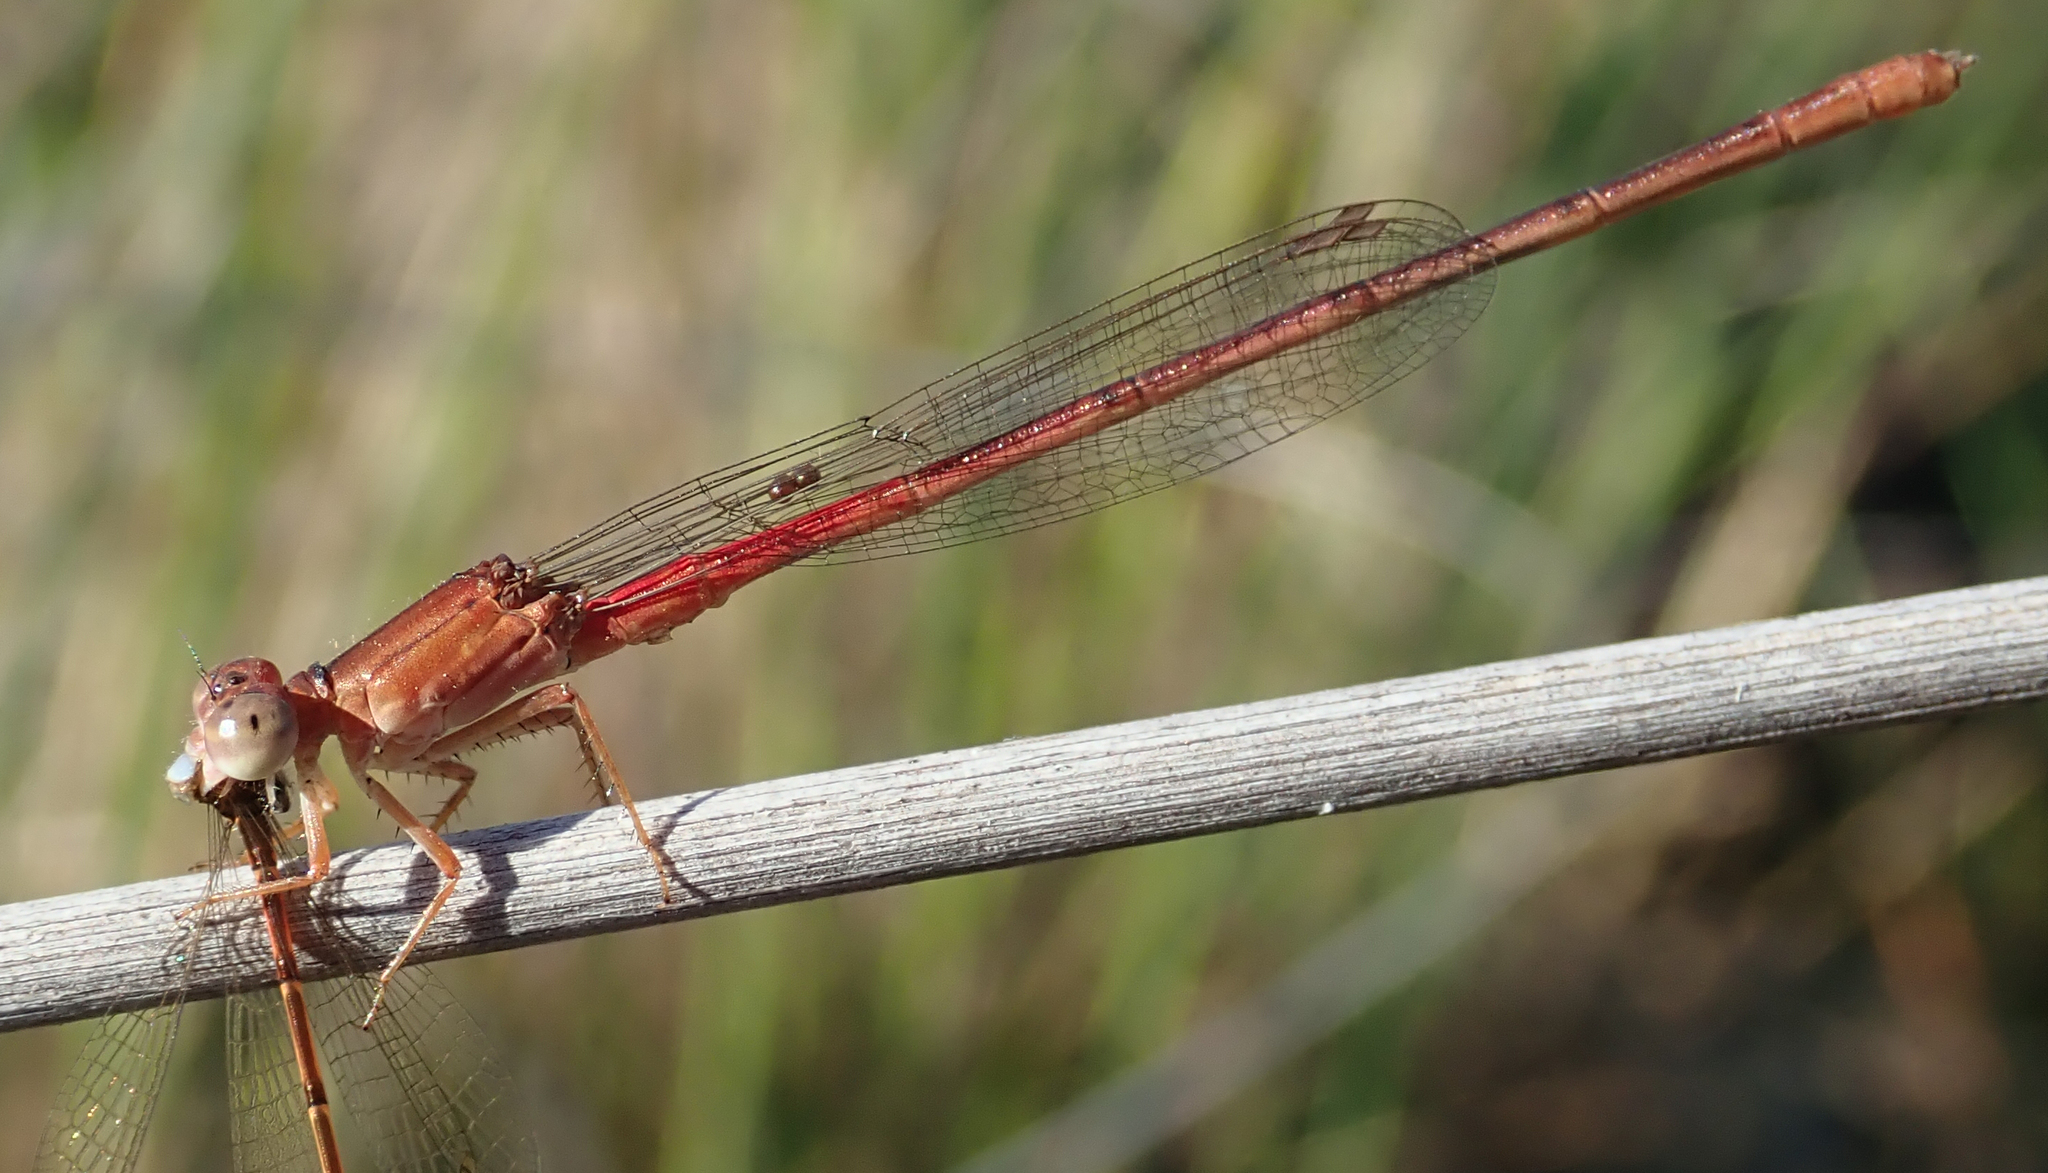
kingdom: Animalia
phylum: Arthropoda
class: Insecta
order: Odonata
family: Coenagrionidae
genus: Ceriagrion
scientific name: Ceriagrion katamborae
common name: White-faced waxtail
